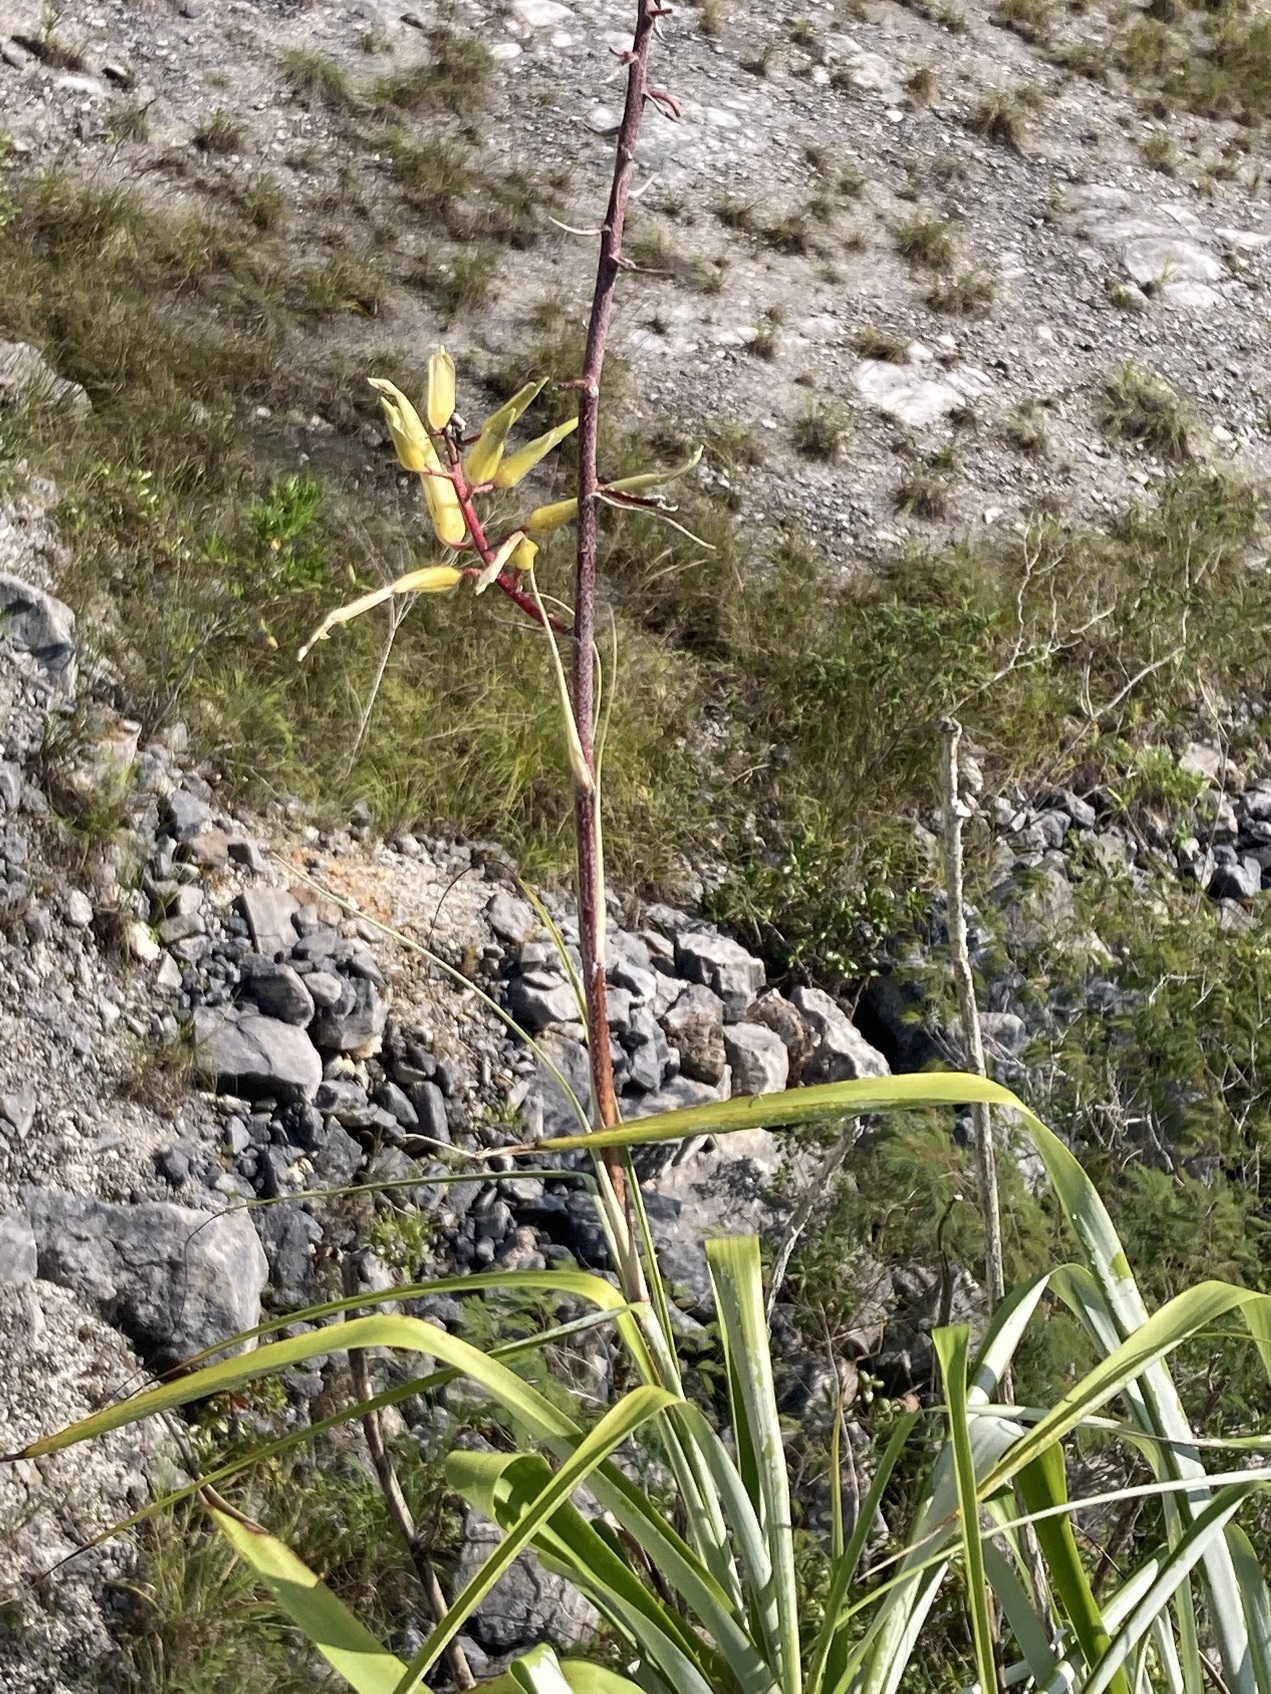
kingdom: Plantae
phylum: Tracheophyta
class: Liliopsida
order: Poales
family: Bromeliaceae
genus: Pitcairnia
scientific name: Pitcairnia breedlovei
